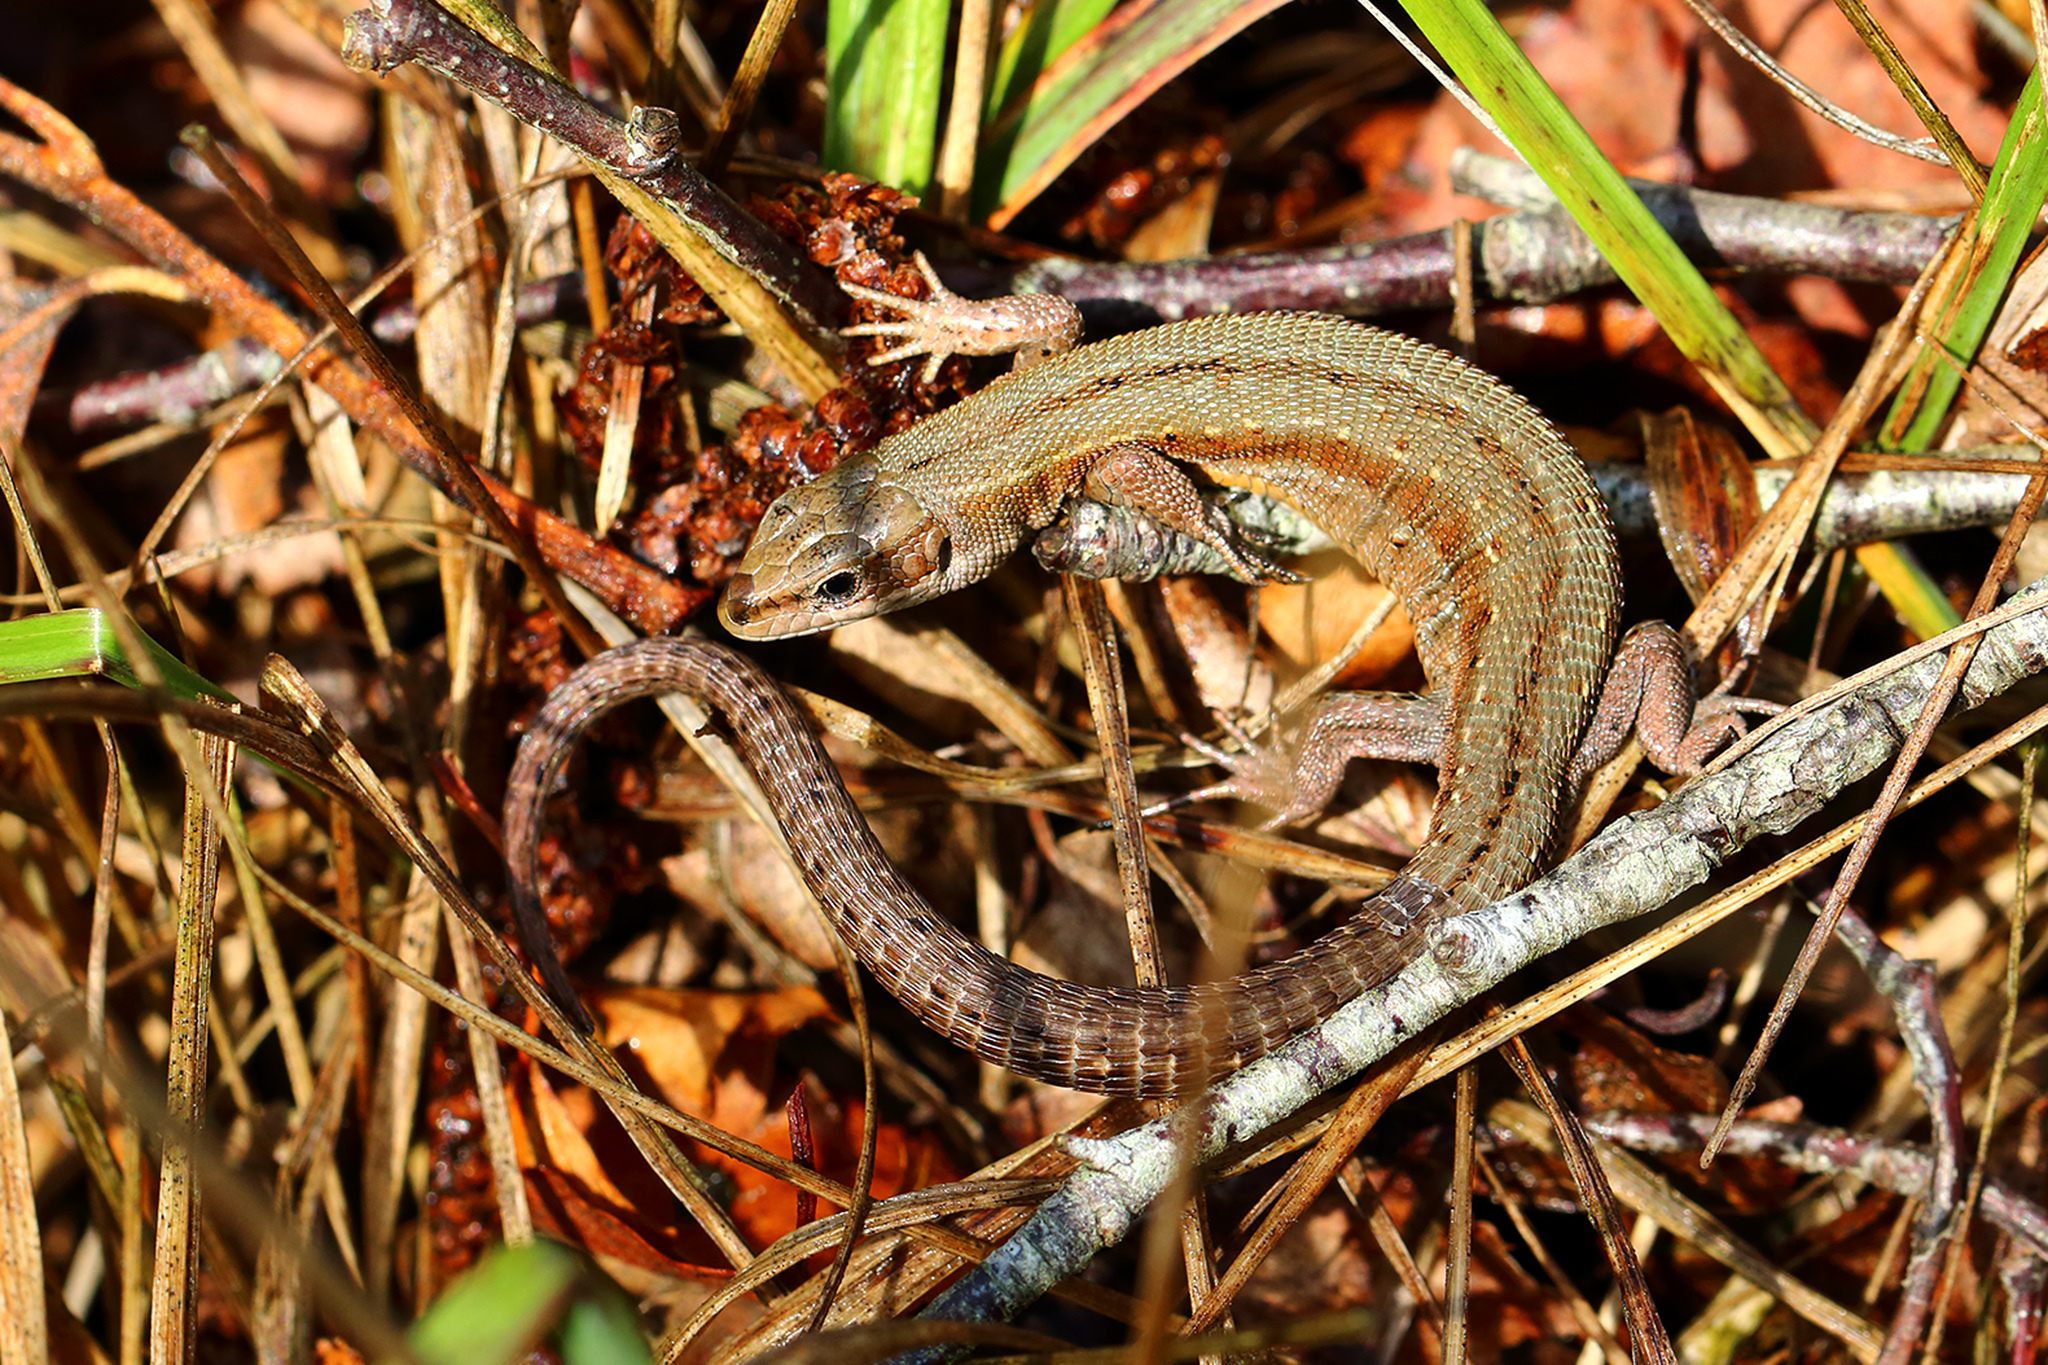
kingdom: Animalia
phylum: Chordata
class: Squamata
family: Lacertidae
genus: Zootoca
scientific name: Zootoca vivipara
